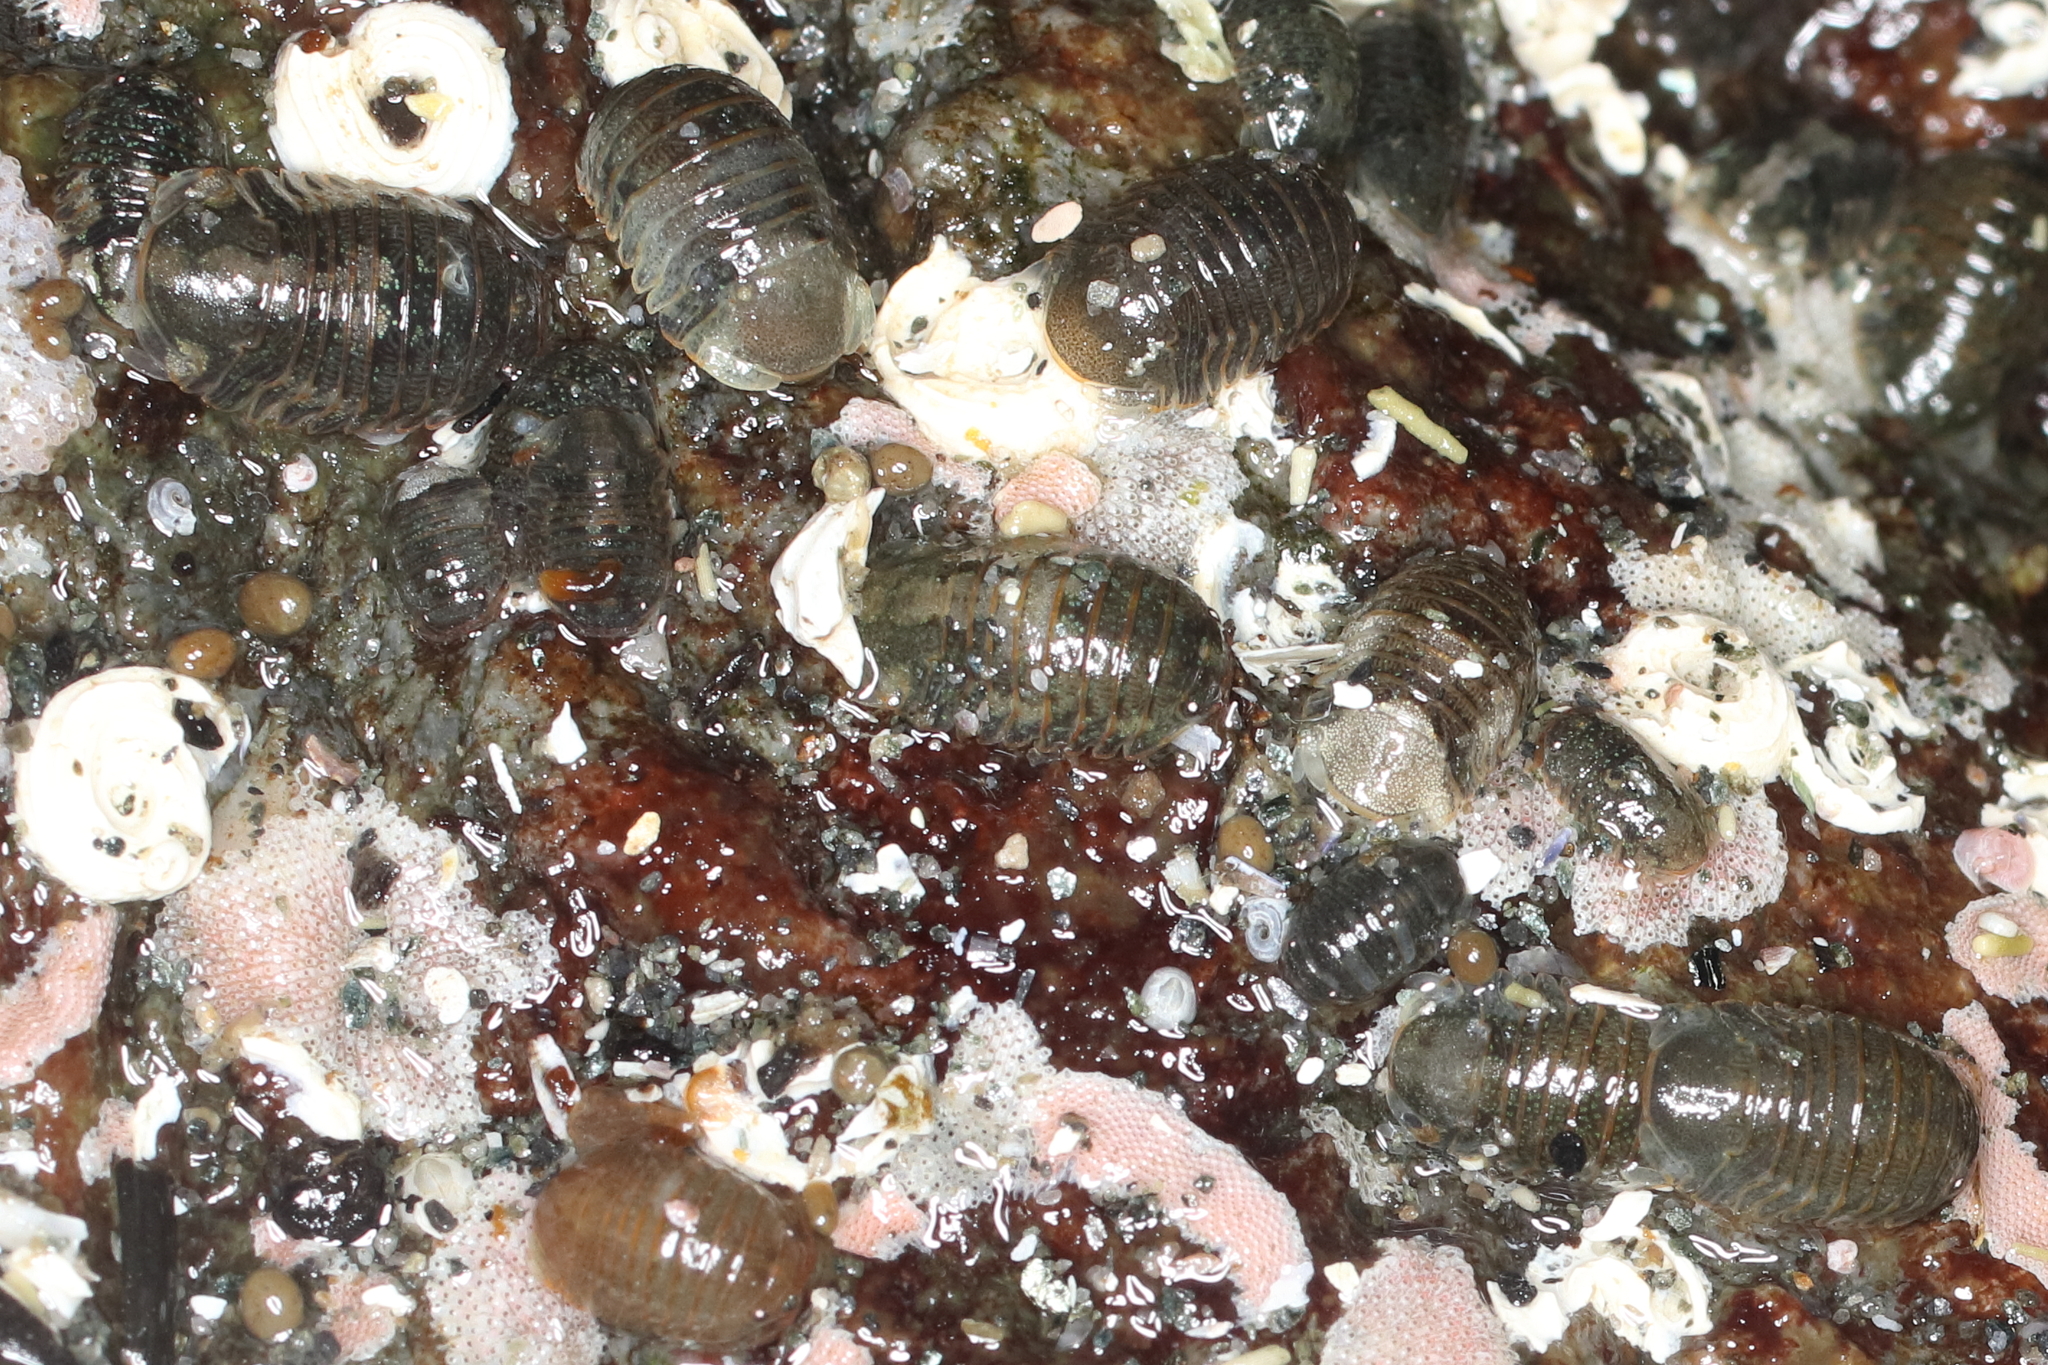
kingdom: Animalia
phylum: Arthropoda
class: Malacostraca
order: Isopoda
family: Sphaeromatidae
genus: Gnorimosphaeroma
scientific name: Gnorimosphaeroma oregonense
